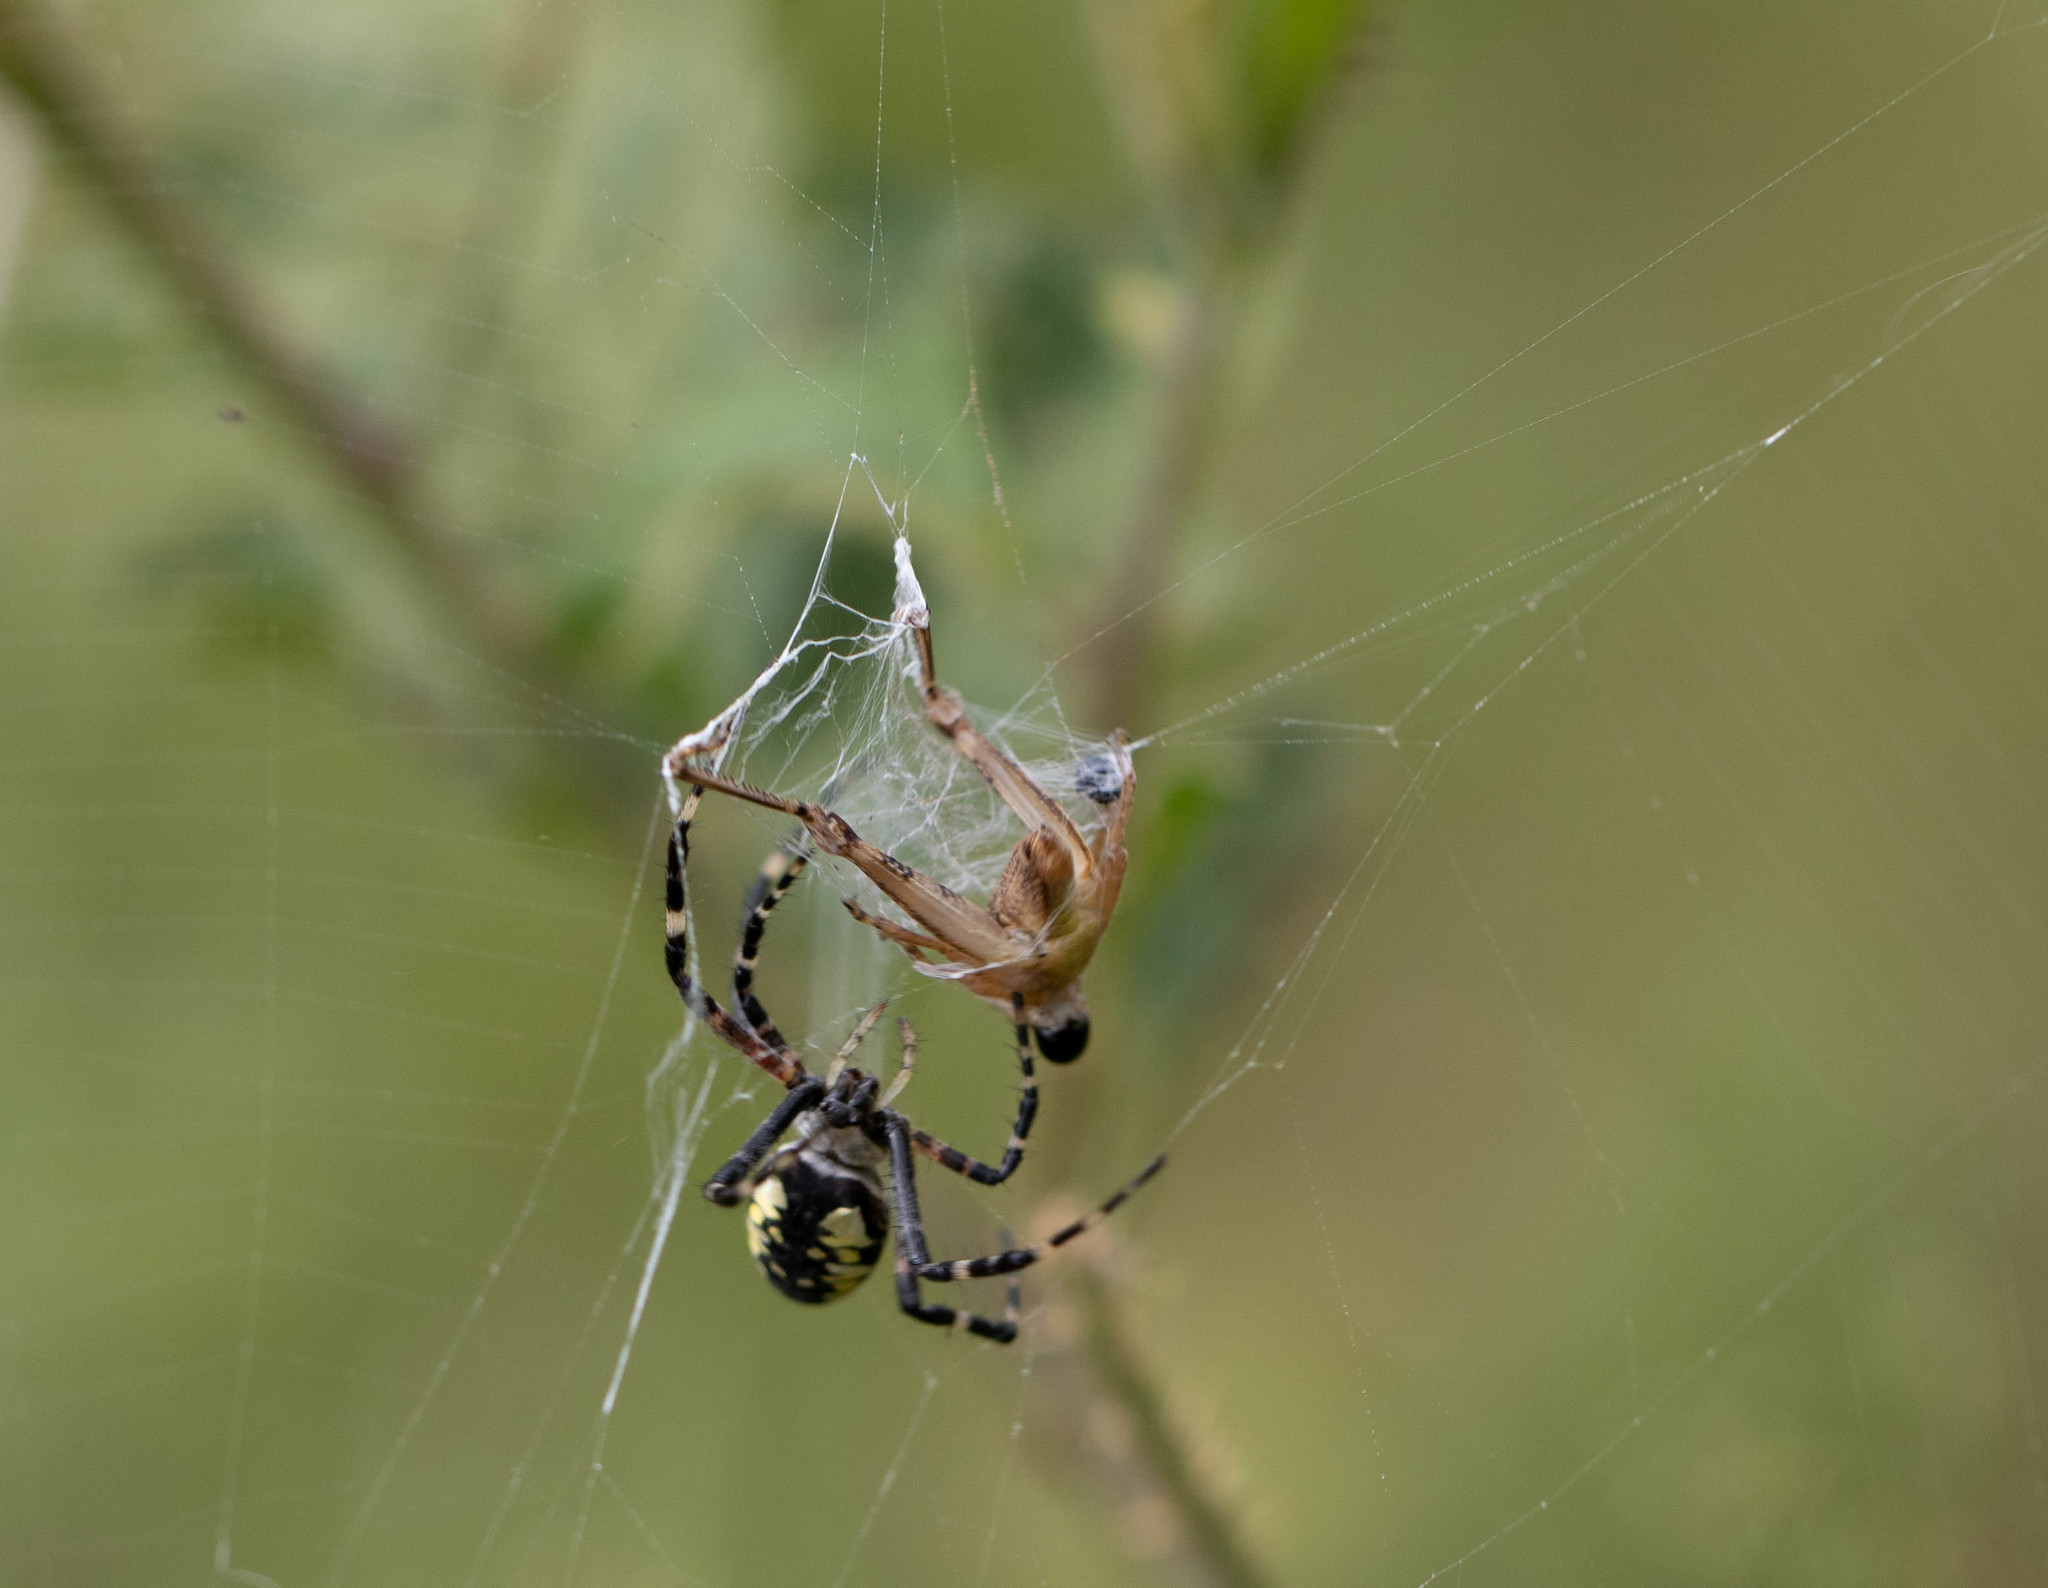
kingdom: Animalia
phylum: Arthropoda
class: Arachnida
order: Araneae
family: Araneidae
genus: Argiope
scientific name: Argiope aurantia
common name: Orb weavers
